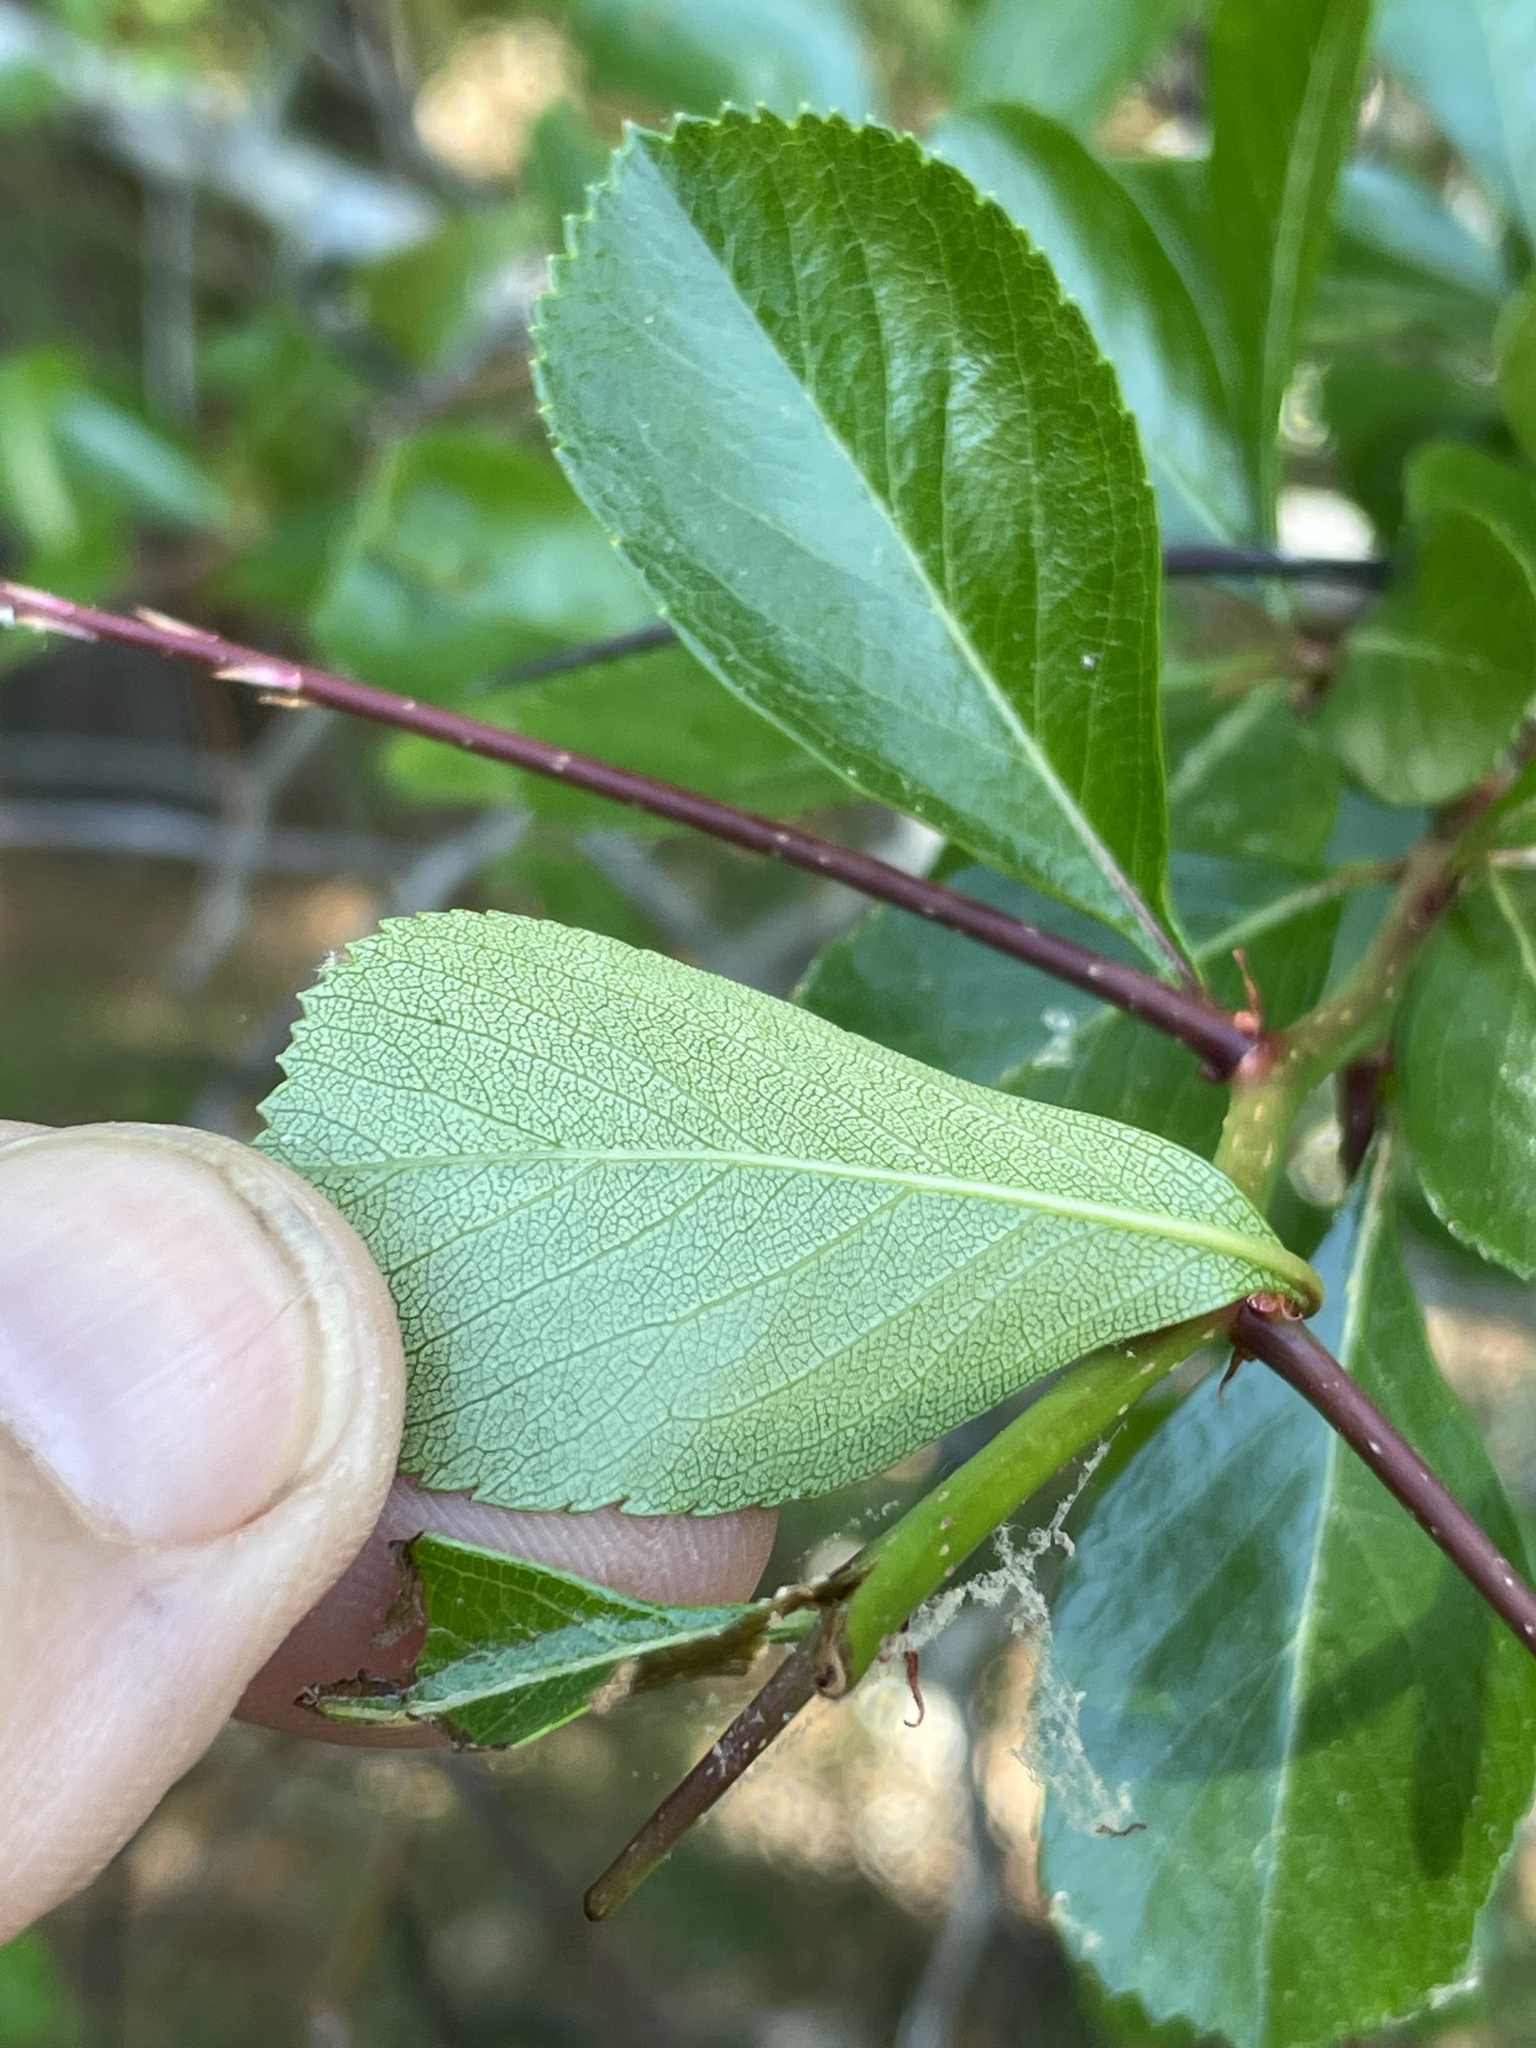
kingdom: Plantae
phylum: Tracheophyta
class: Magnoliopsida
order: Rosales
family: Rosaceae
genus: Crataegus
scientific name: Crataegus crus-galli
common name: Cockspurthorn
